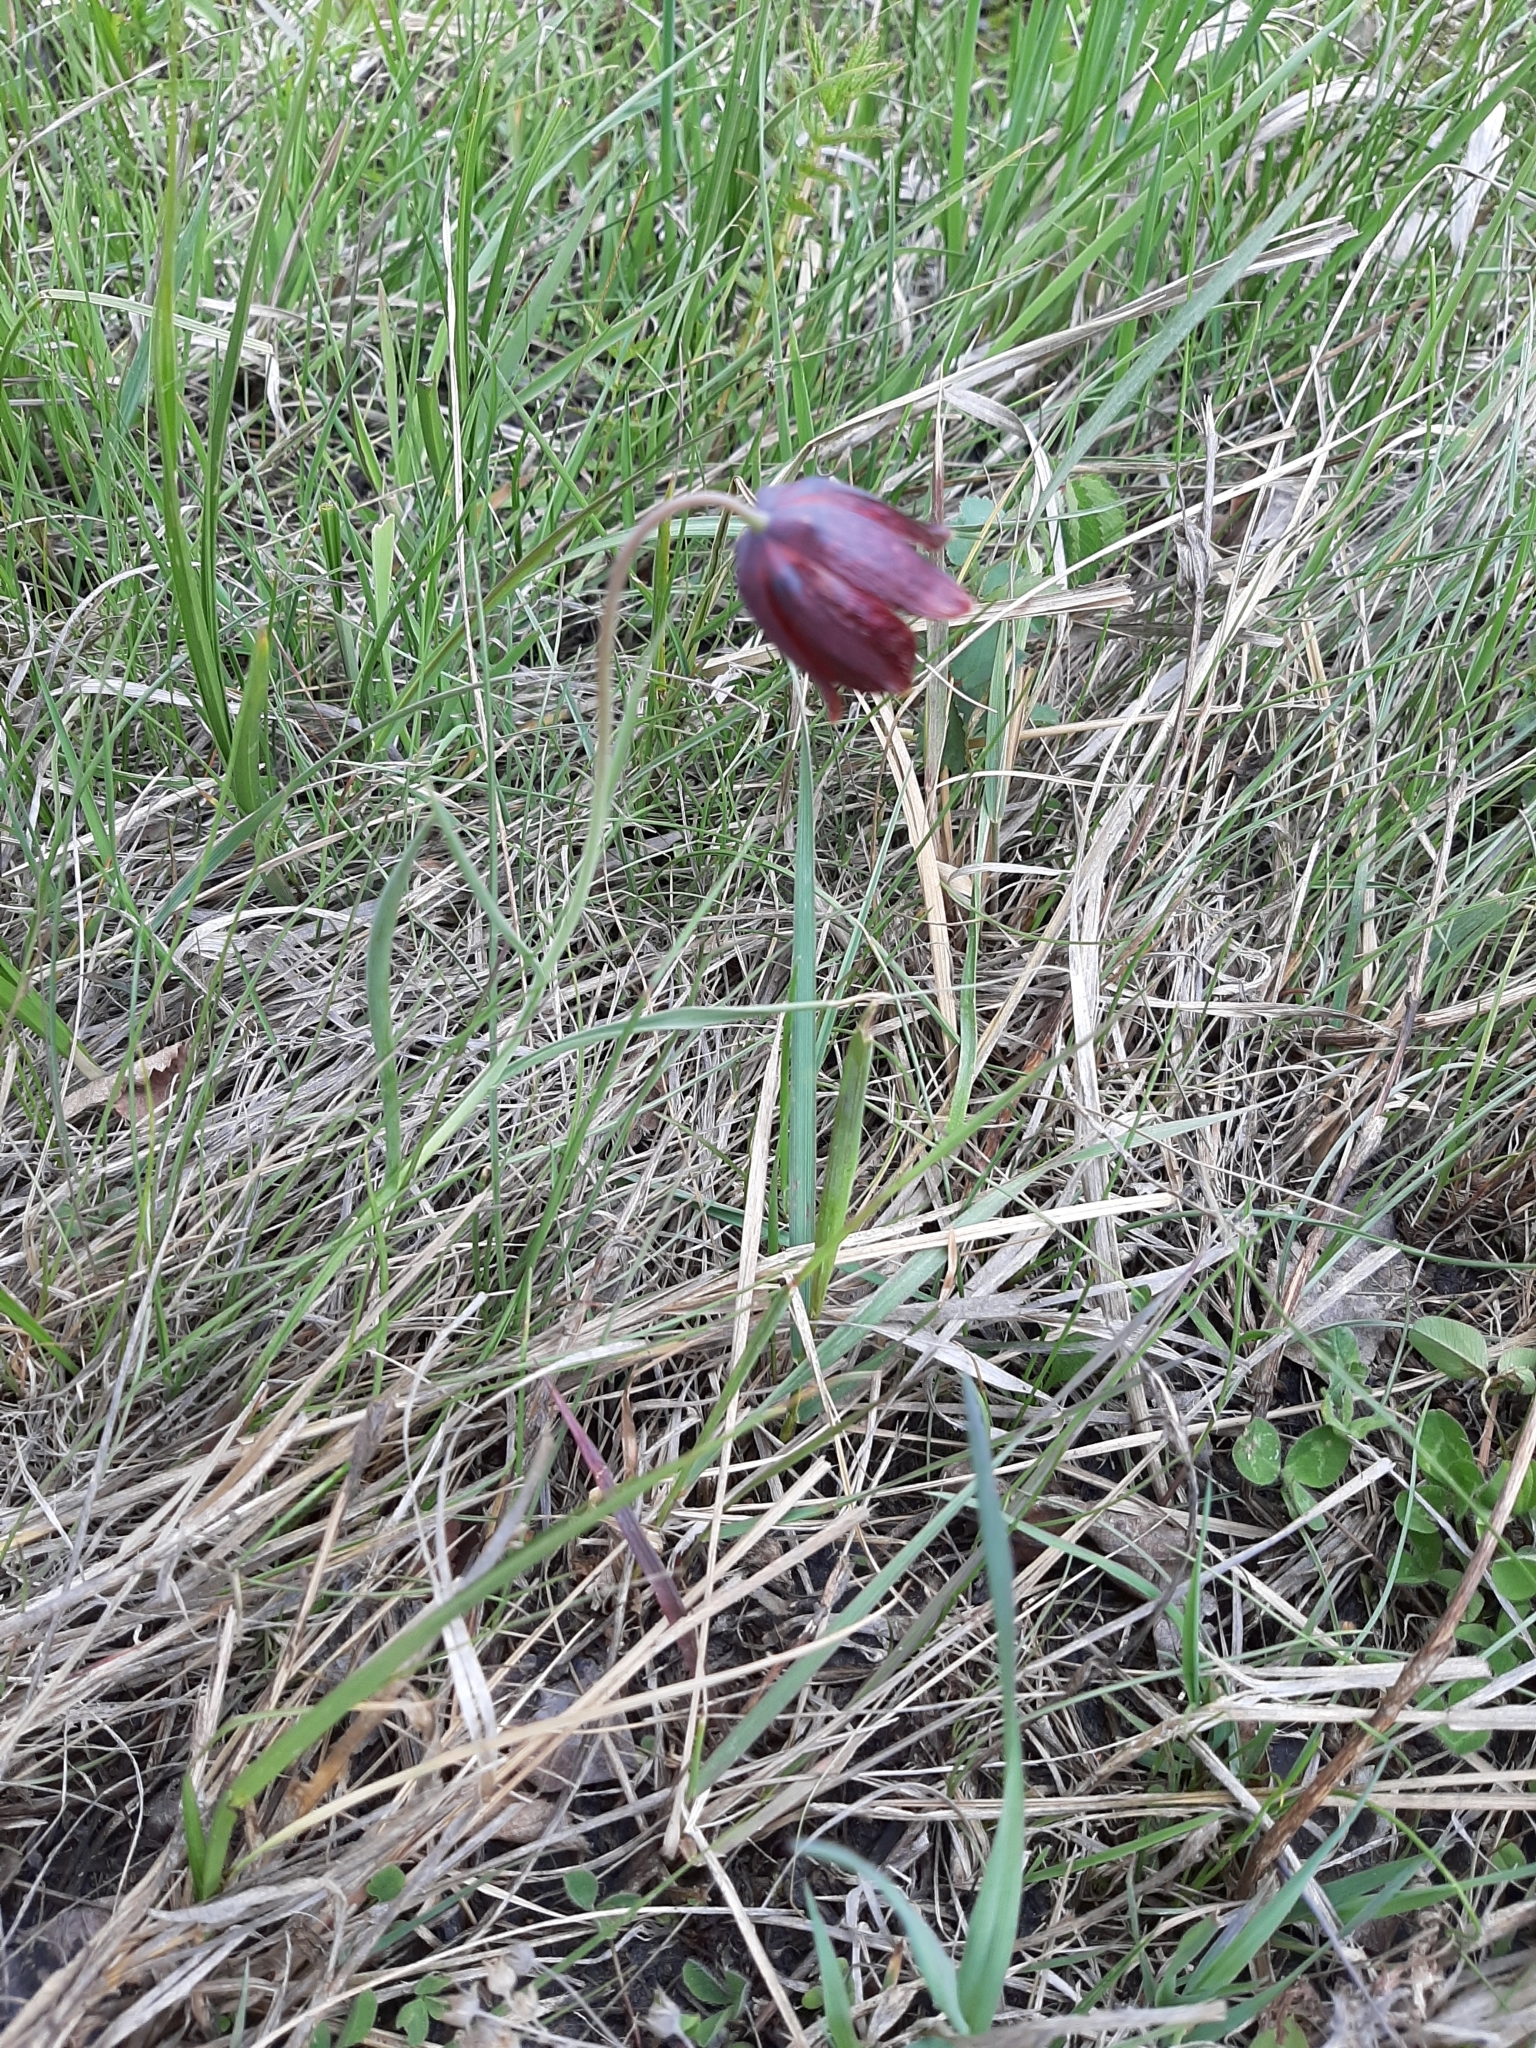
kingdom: Plantae
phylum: Tracheophyta
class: Liliopsida
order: Liliales
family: Liliaceae
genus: Fritillaria
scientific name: Fritillaria meleagroides
